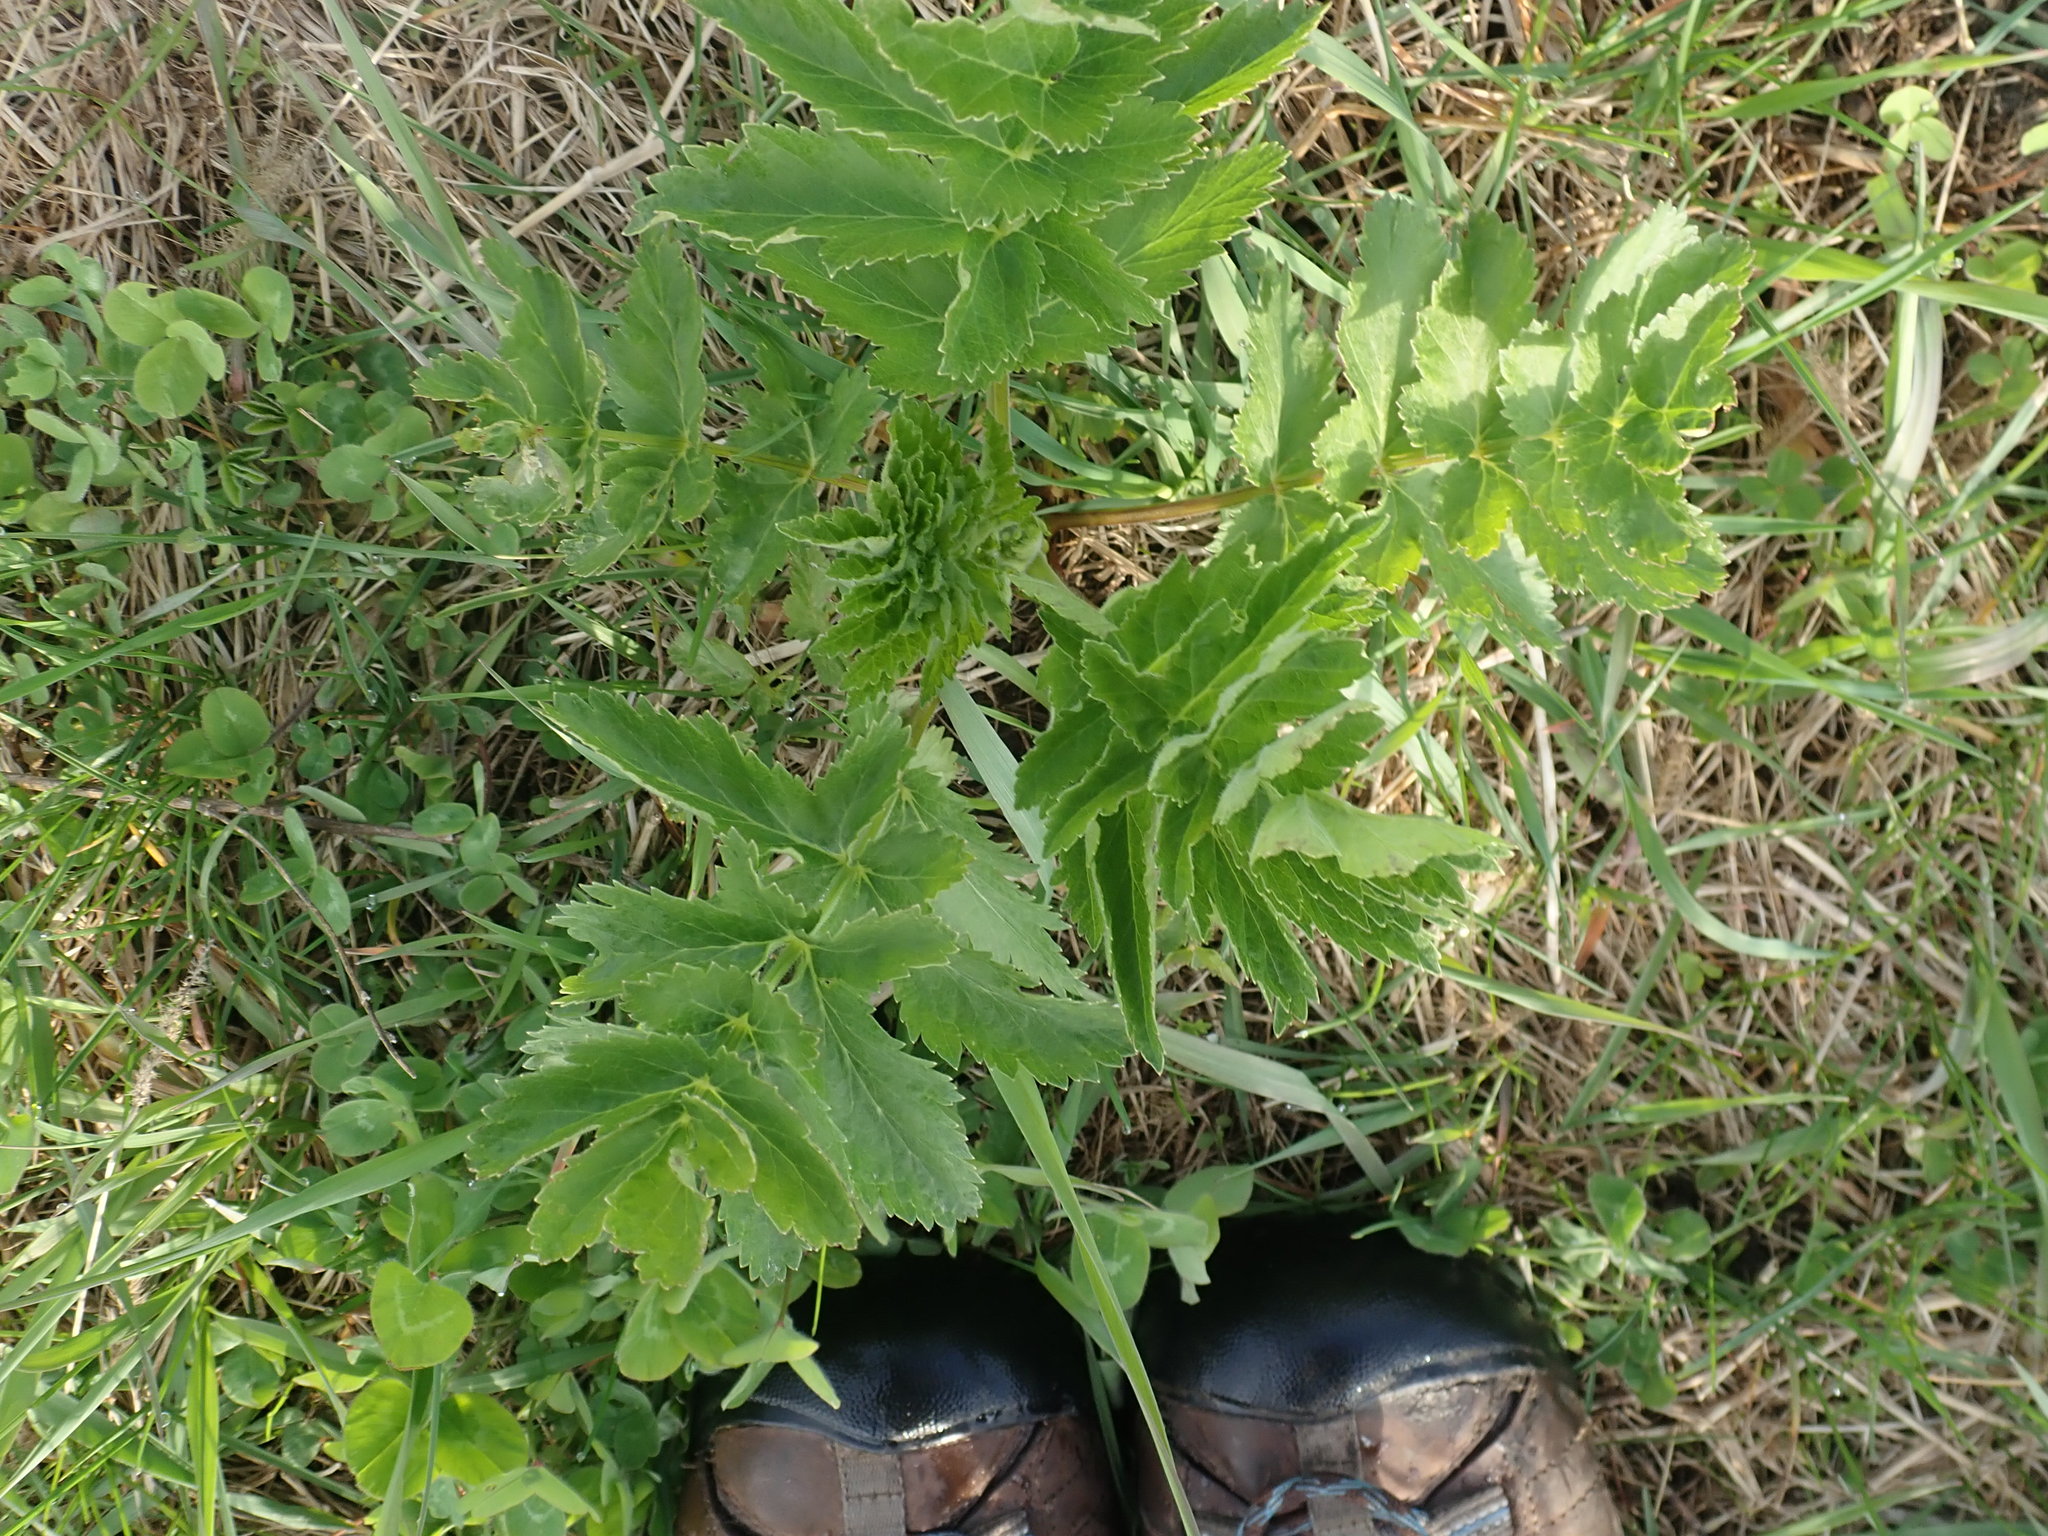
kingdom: Plantae
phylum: Tracheophyta
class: Magnoliopsida
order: Apiales
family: Apiaceae
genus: Pastinaca
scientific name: Pastinaca sativa
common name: Wild parsnip
